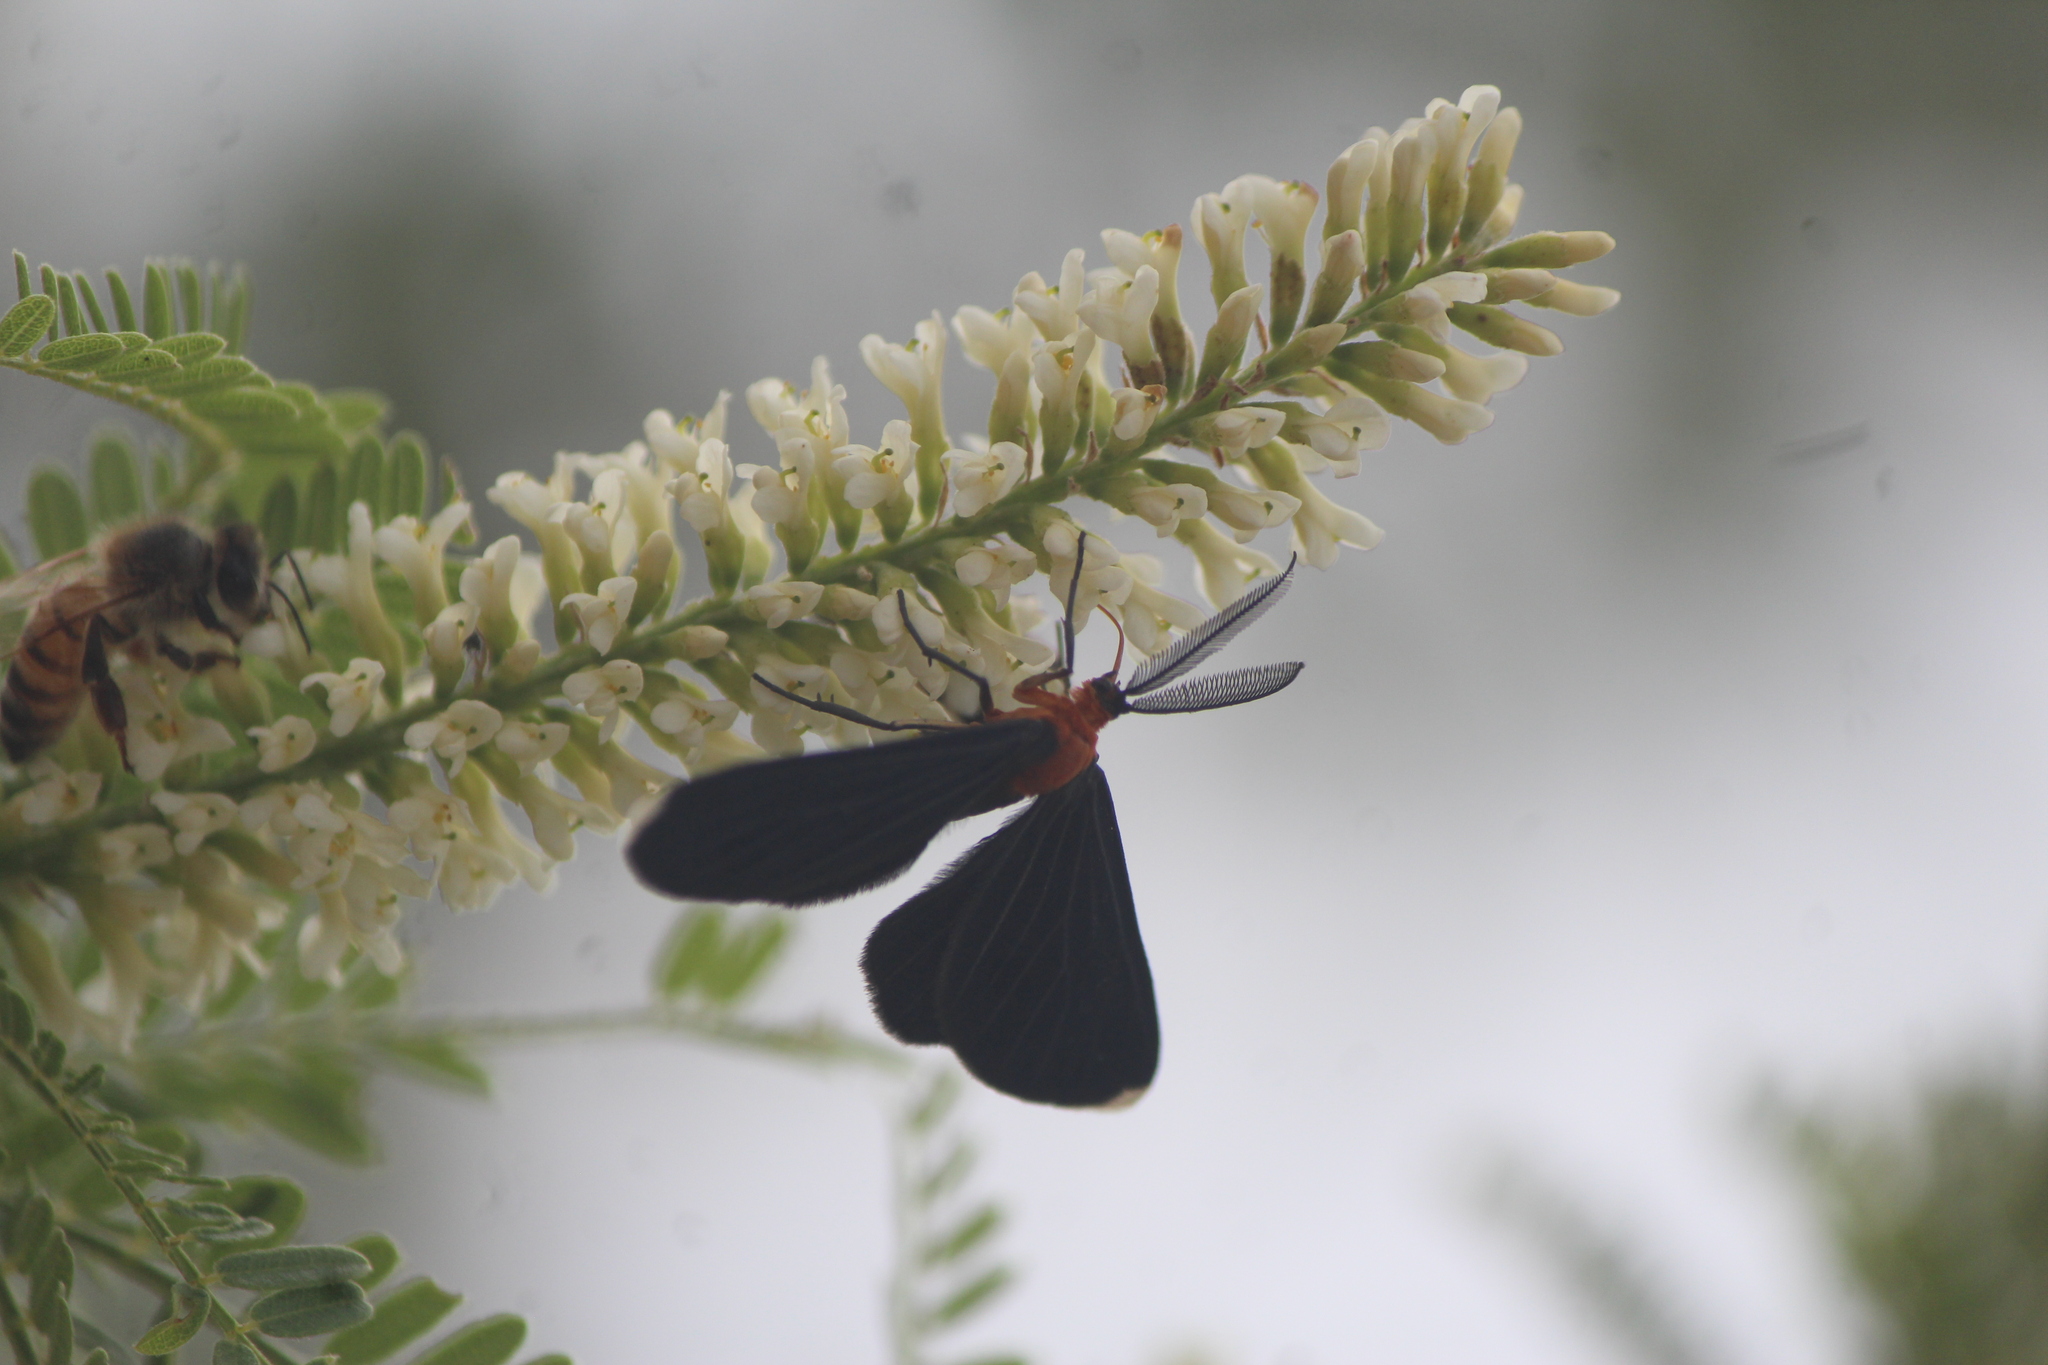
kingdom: Animalia
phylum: Arthropoda
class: Insecta
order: Lepidoptera
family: Geometridae
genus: Melanchroia
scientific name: Melanchroia chephise
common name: White-tipped black
